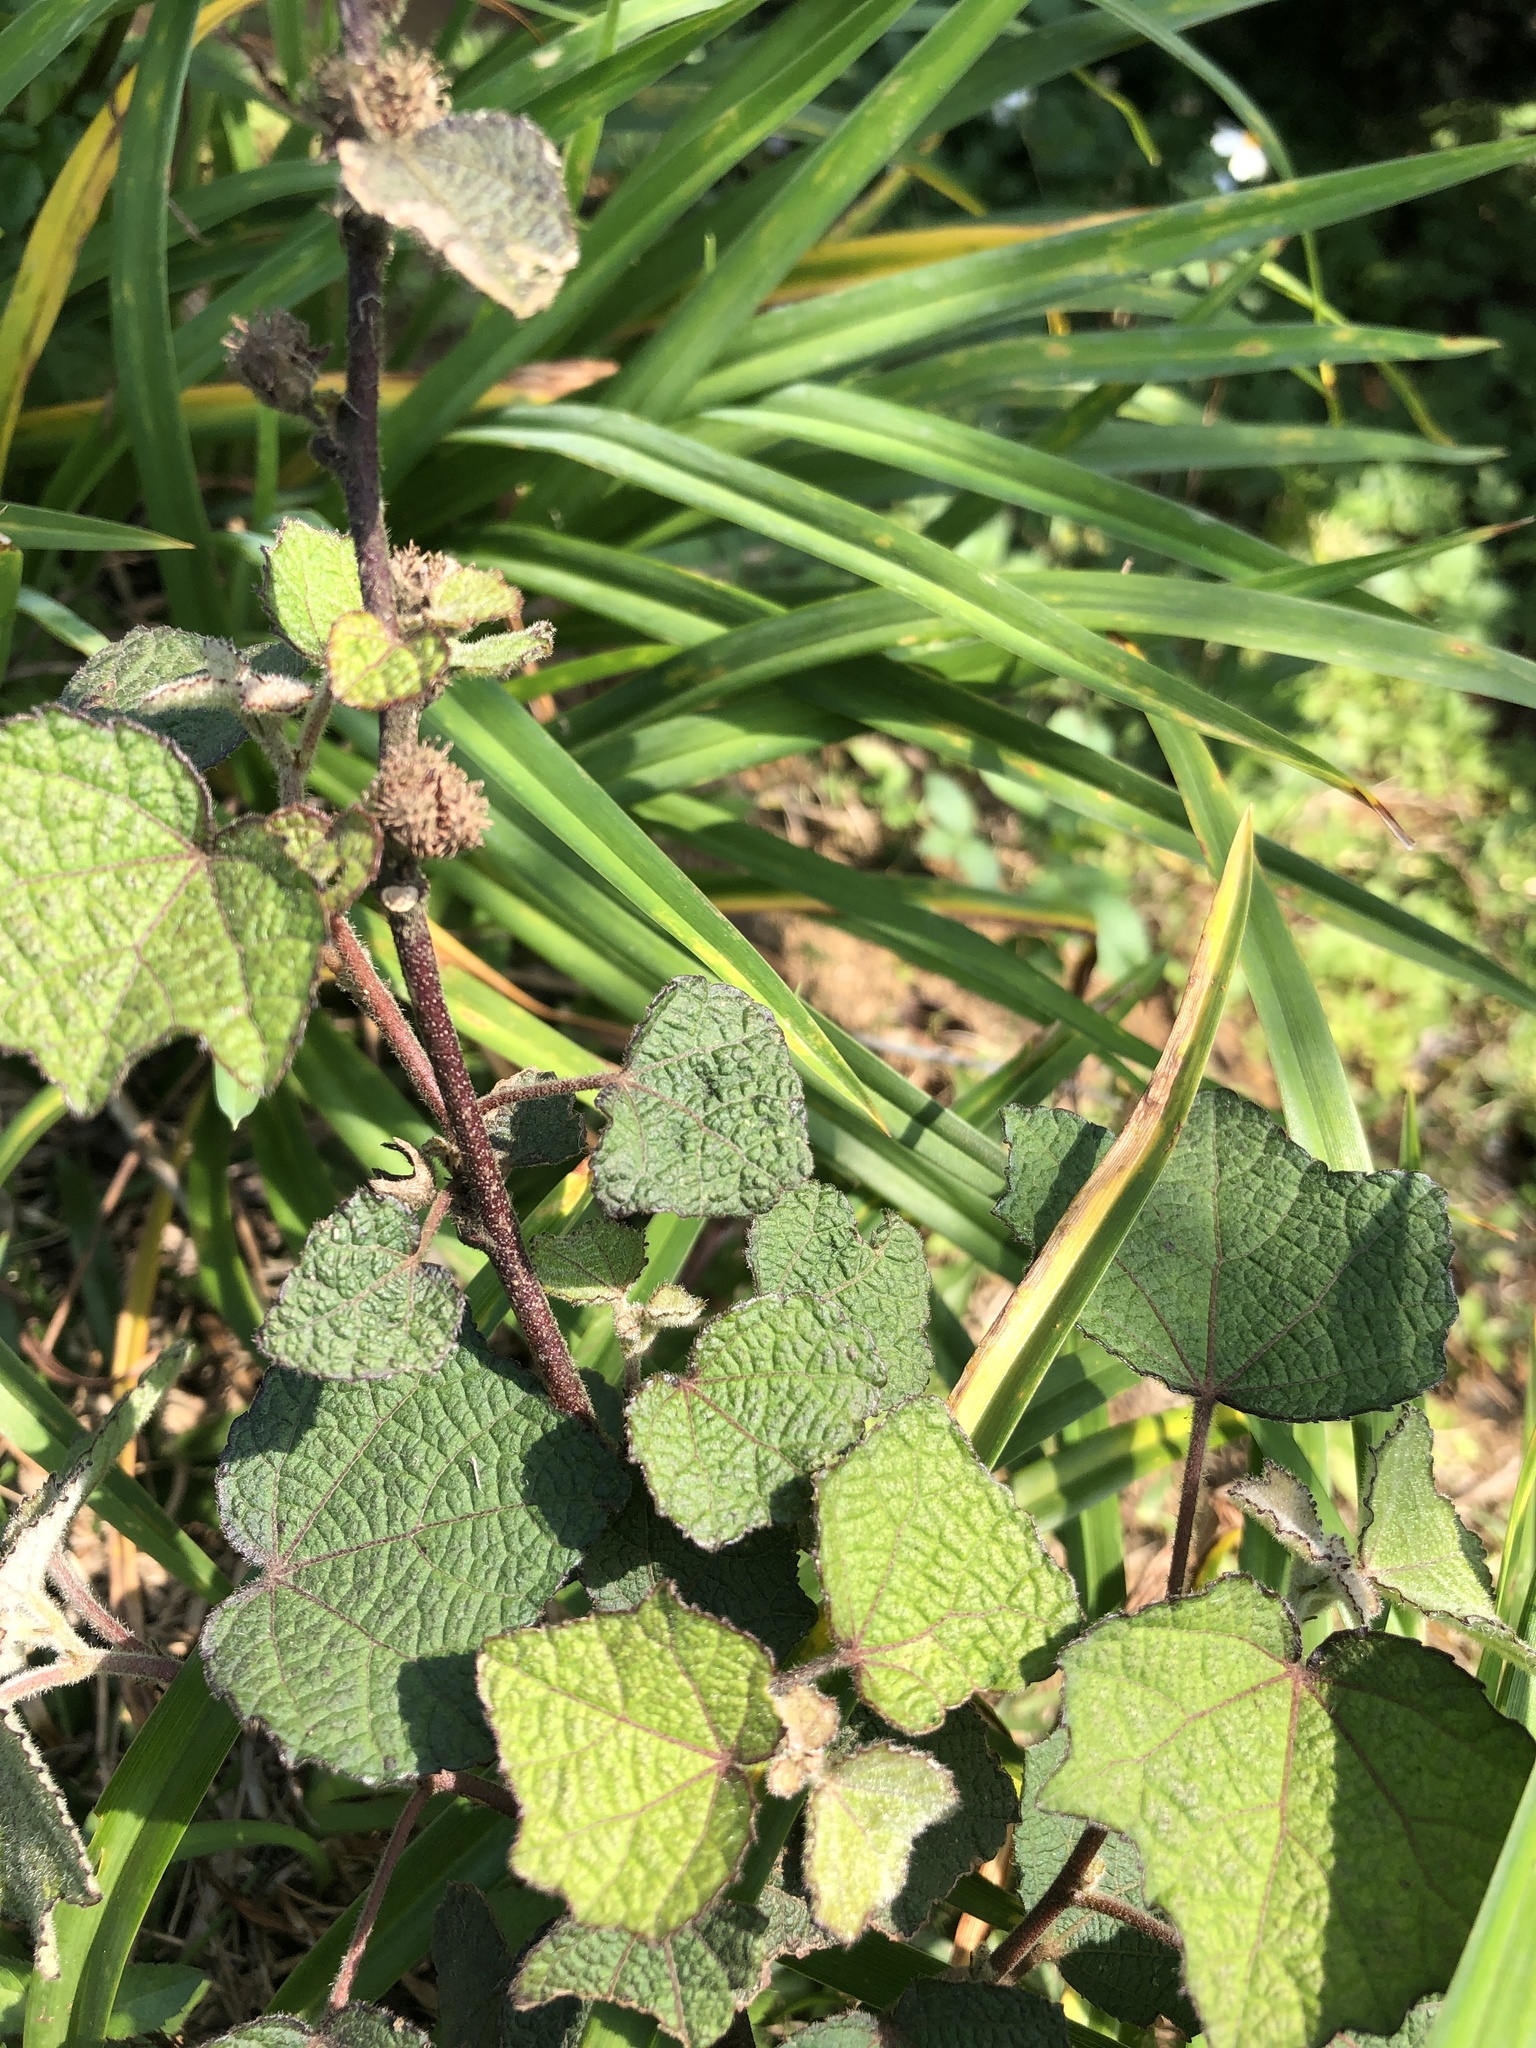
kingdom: Plantae
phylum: Tracheophyta
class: Magnoliopsida
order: Malvales
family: Malvaceae
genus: Urena
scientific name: Urena lobata
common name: Caesarweed
